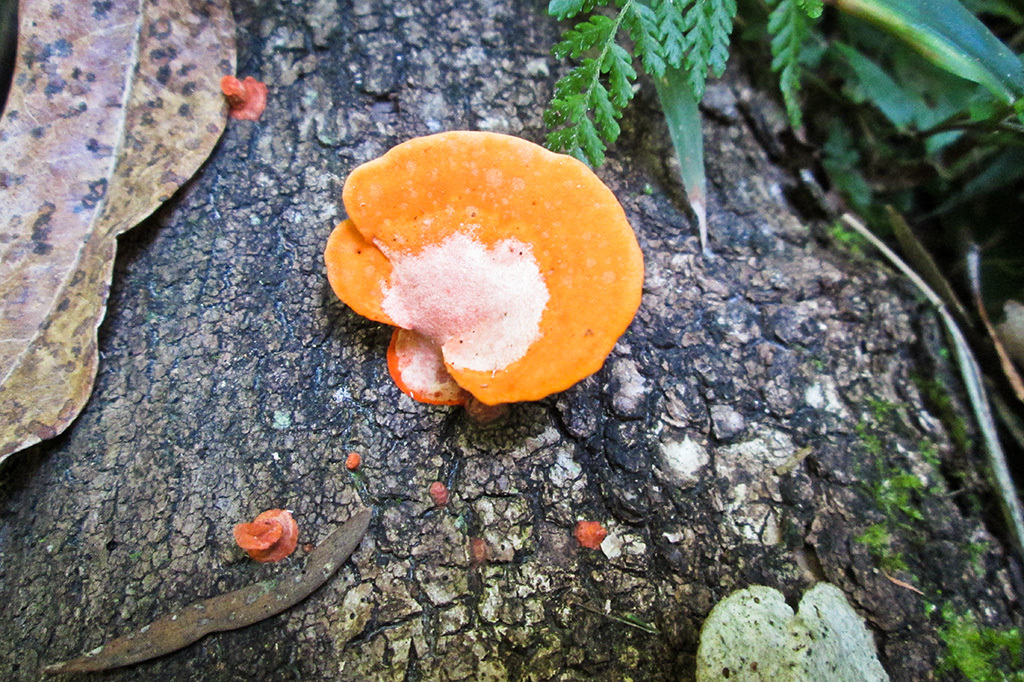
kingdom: Fungi
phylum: Basidiomycota
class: Agaricomycetes
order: Polyporales
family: Polyporaceae
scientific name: Polyporaceae
